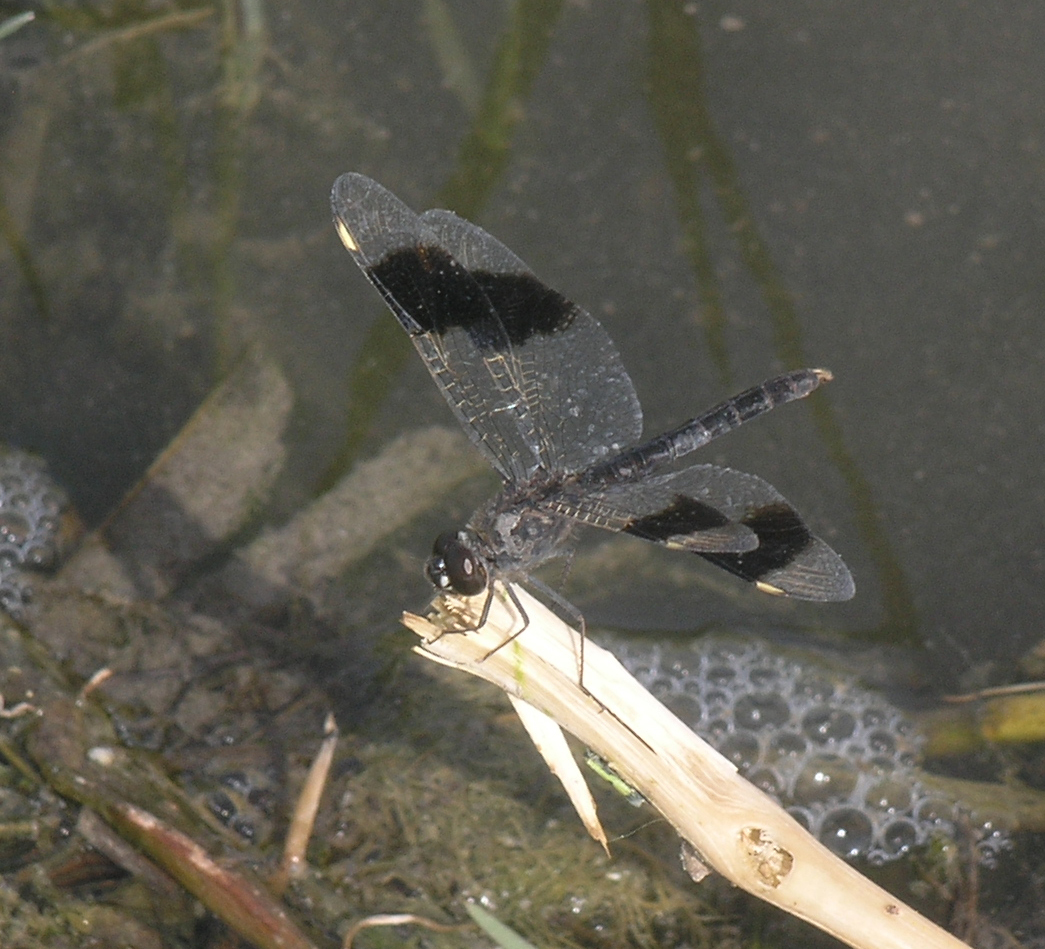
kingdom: Animalia
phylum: Arthropoda
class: Insecta
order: Odonata
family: Libellulidae
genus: Brachythemis
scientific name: Brachythemis impartita
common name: Banded groundling
